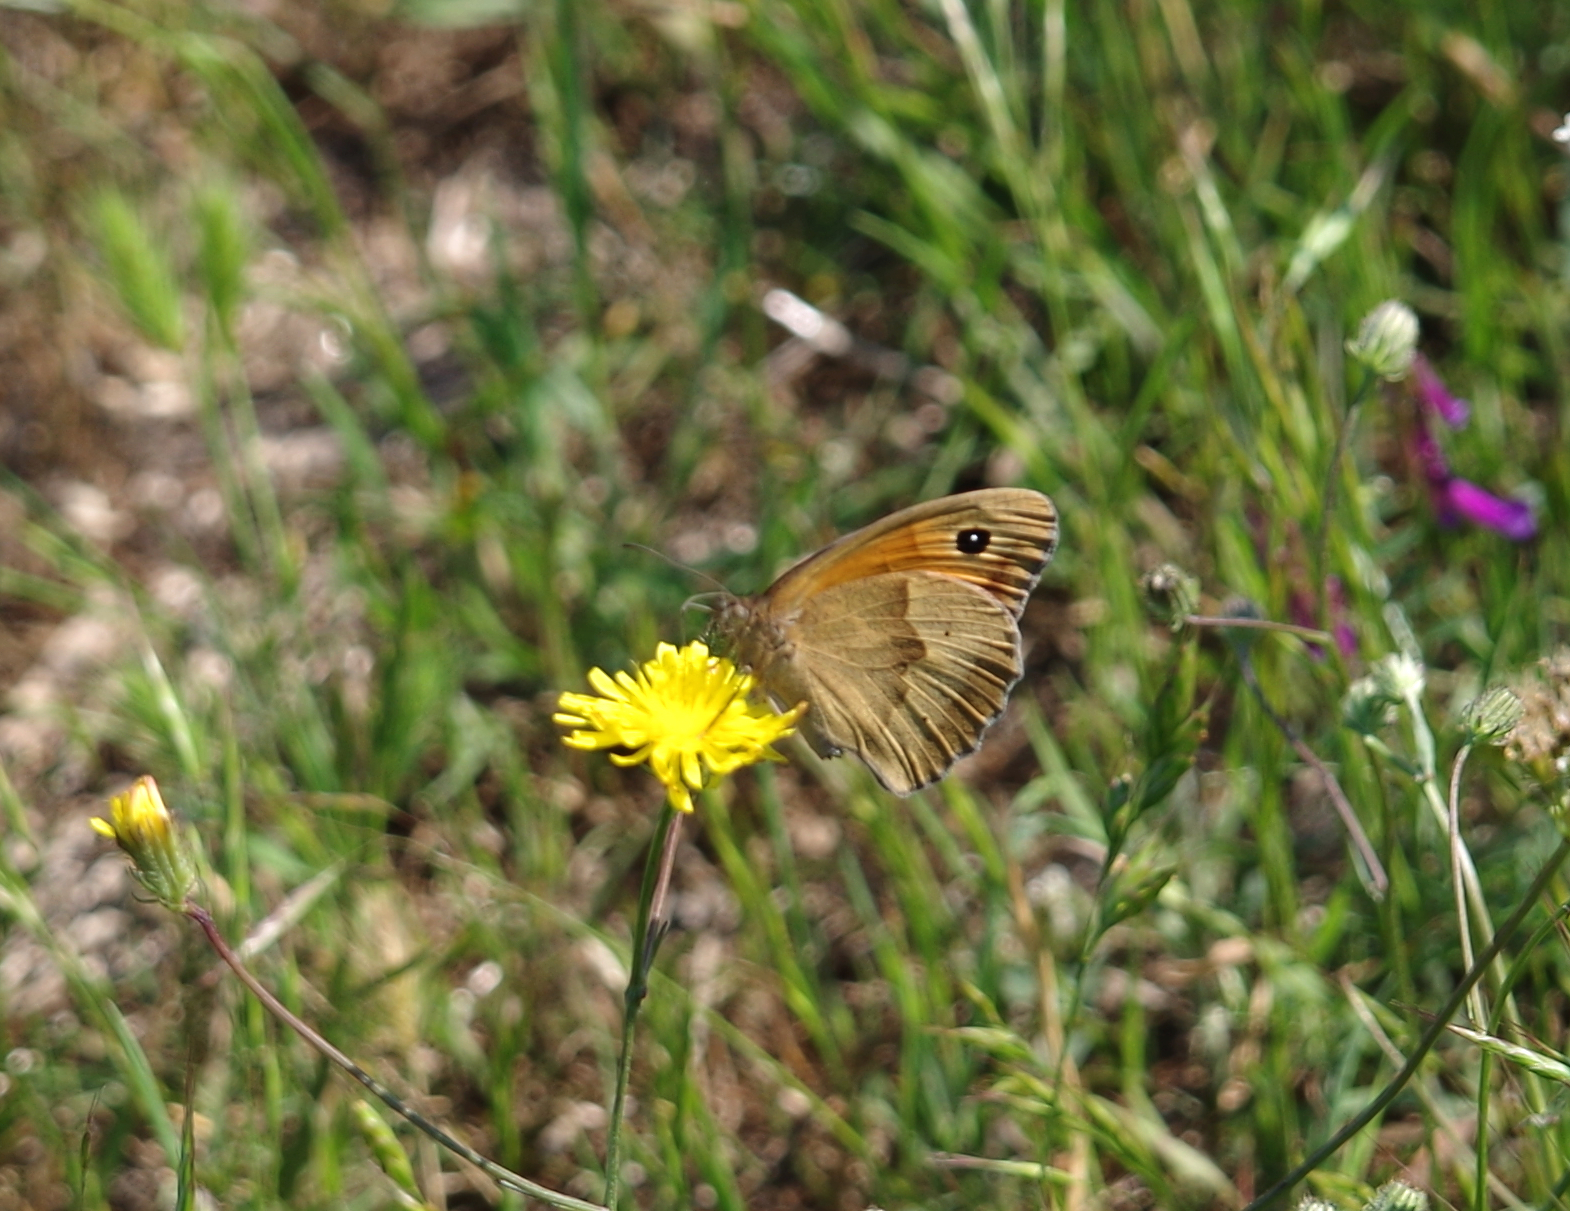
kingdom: Animalia
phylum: Arthropoda
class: Insecta
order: Lepidoptera
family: Nymphalidae
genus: Maniola
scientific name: Maniola jurtina
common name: Meadow brown
